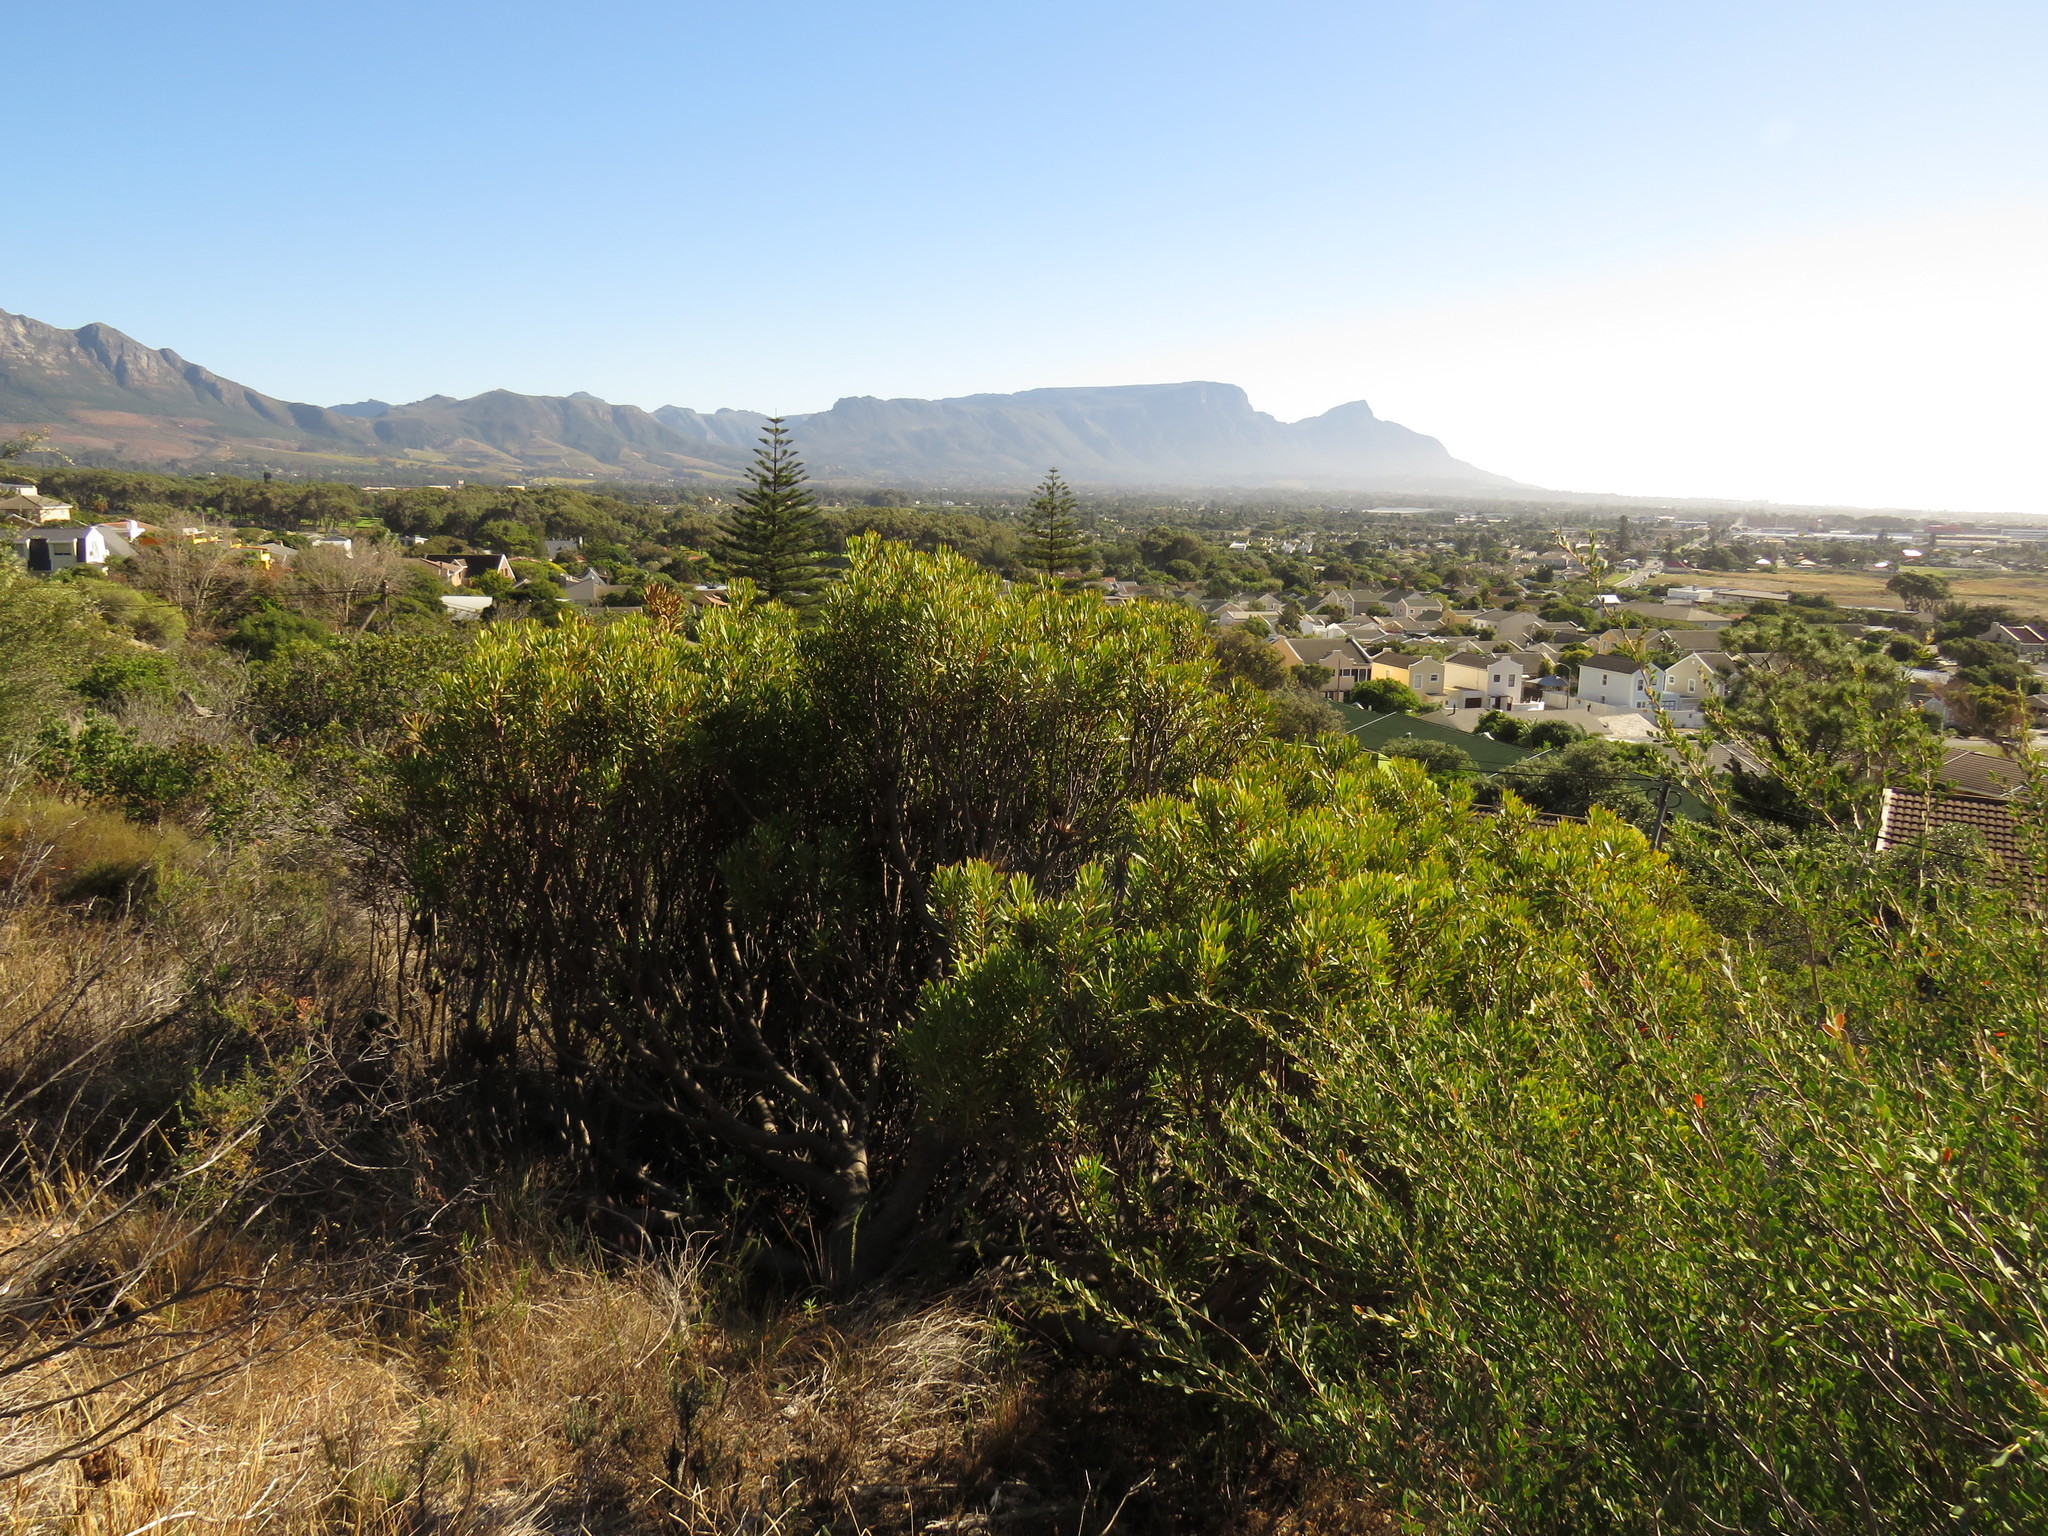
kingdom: Plantae
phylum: Tracheophyta
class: Magnoliopsida
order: Proteales
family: Proteaceae
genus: Protea
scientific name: Protea repens
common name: Sugarbush
